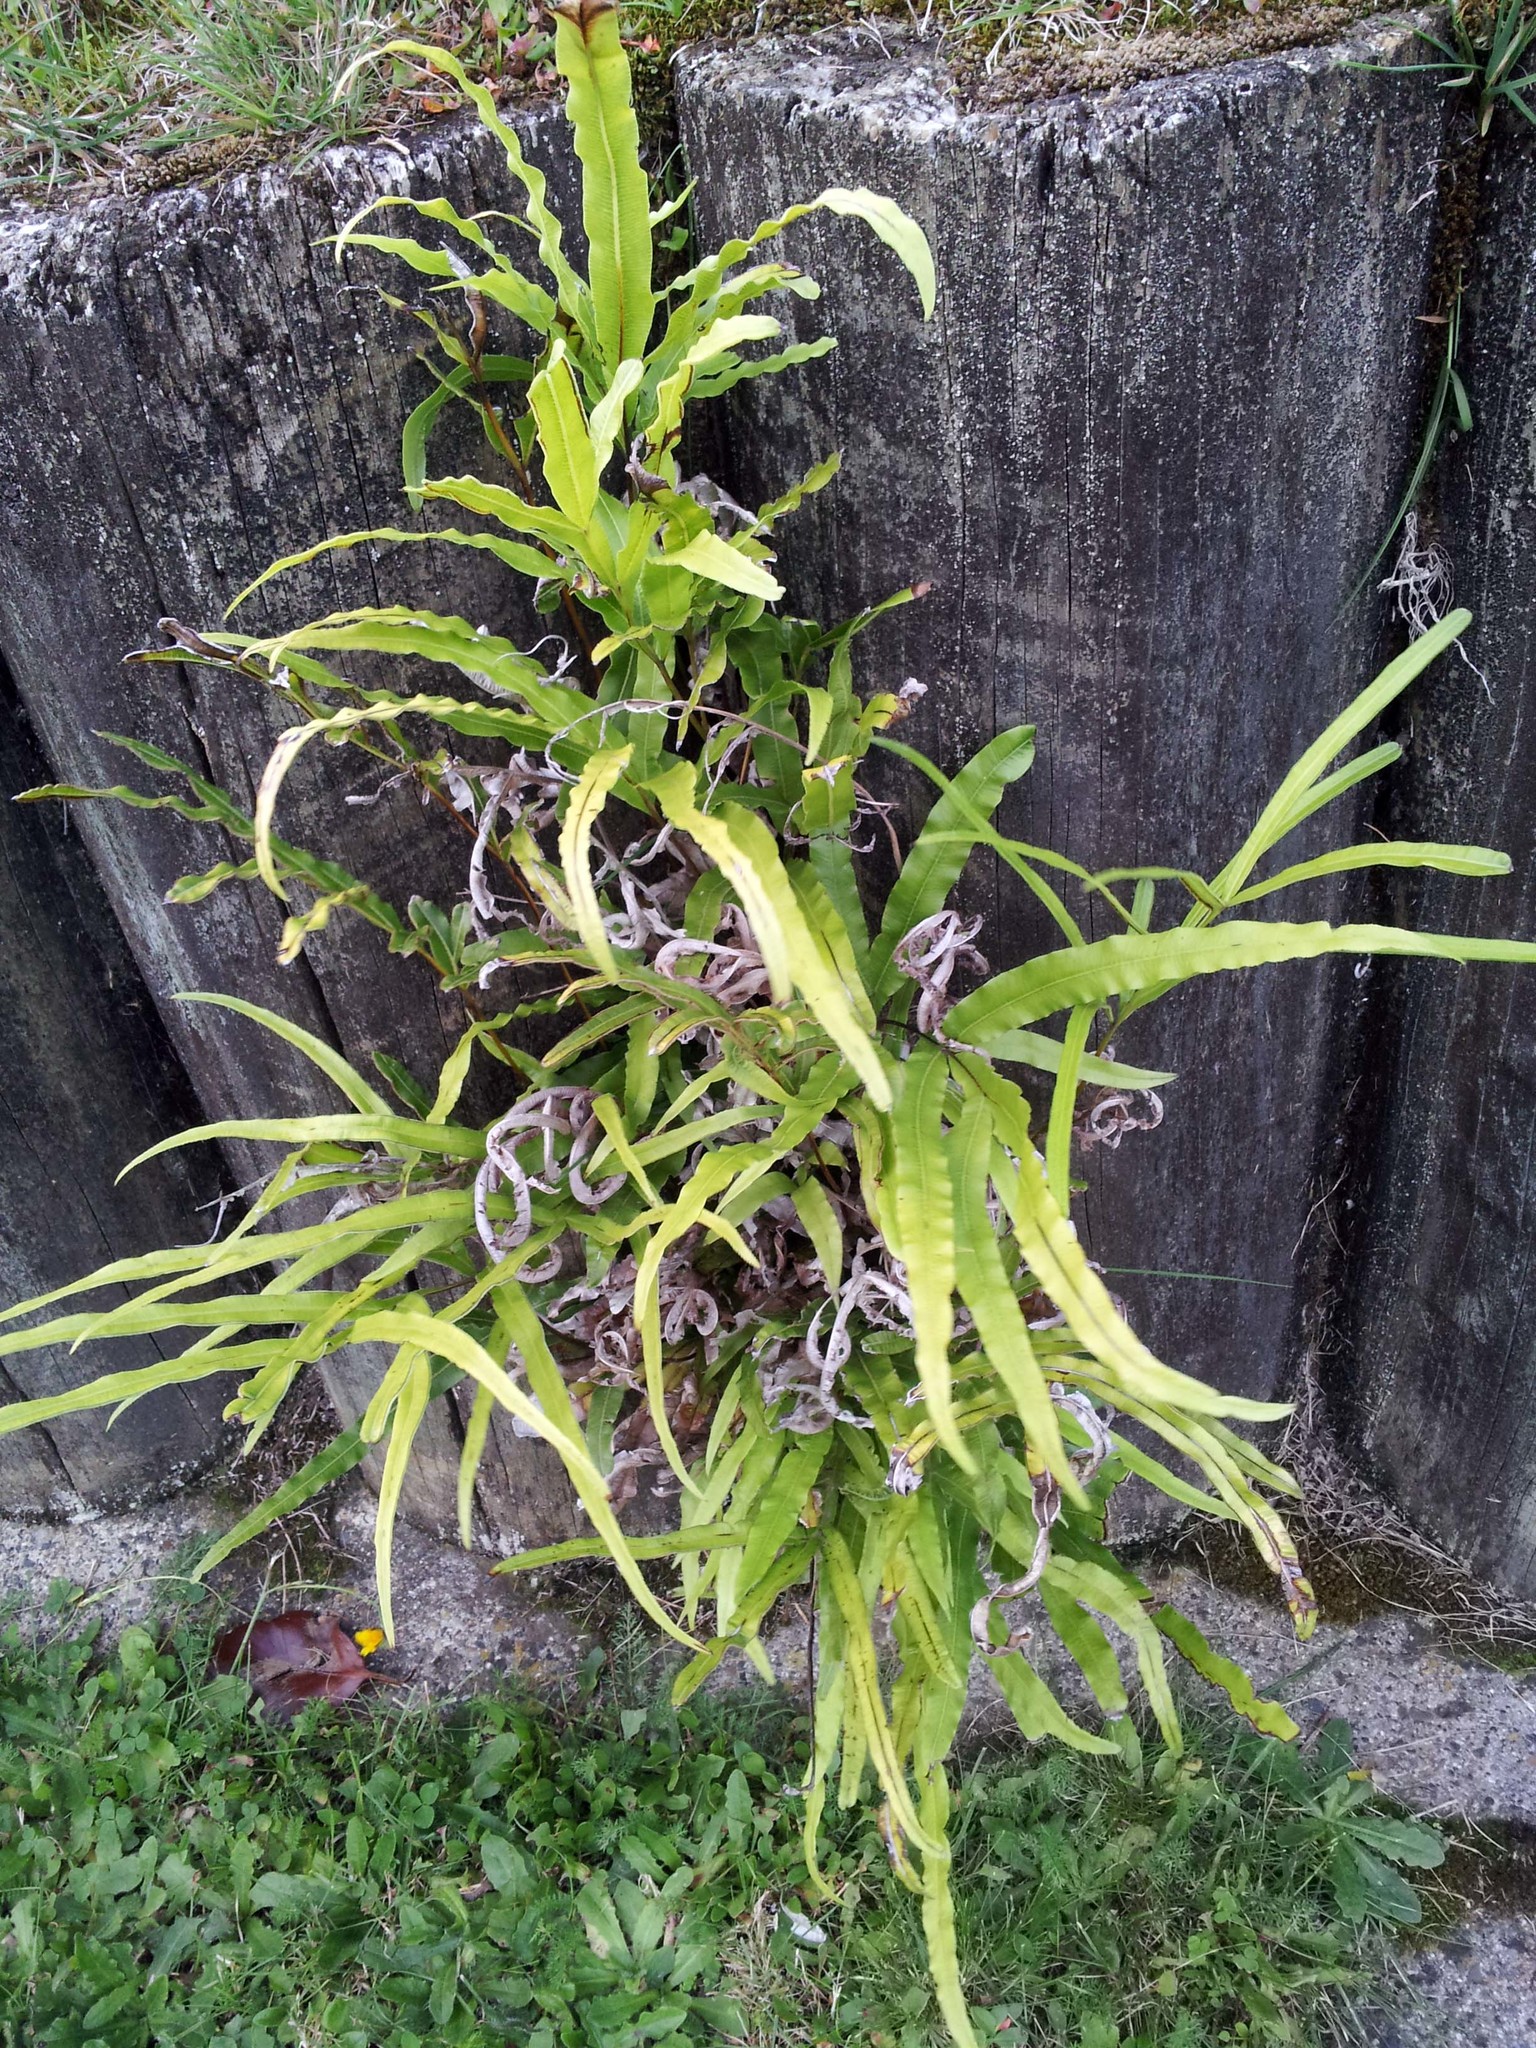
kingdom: Plantae
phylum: Tracheophyta
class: Polypodiopsida
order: Polypodiales
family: Pteridaceae
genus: Pteris
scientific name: Pteris cretica
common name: Ribbon fern
